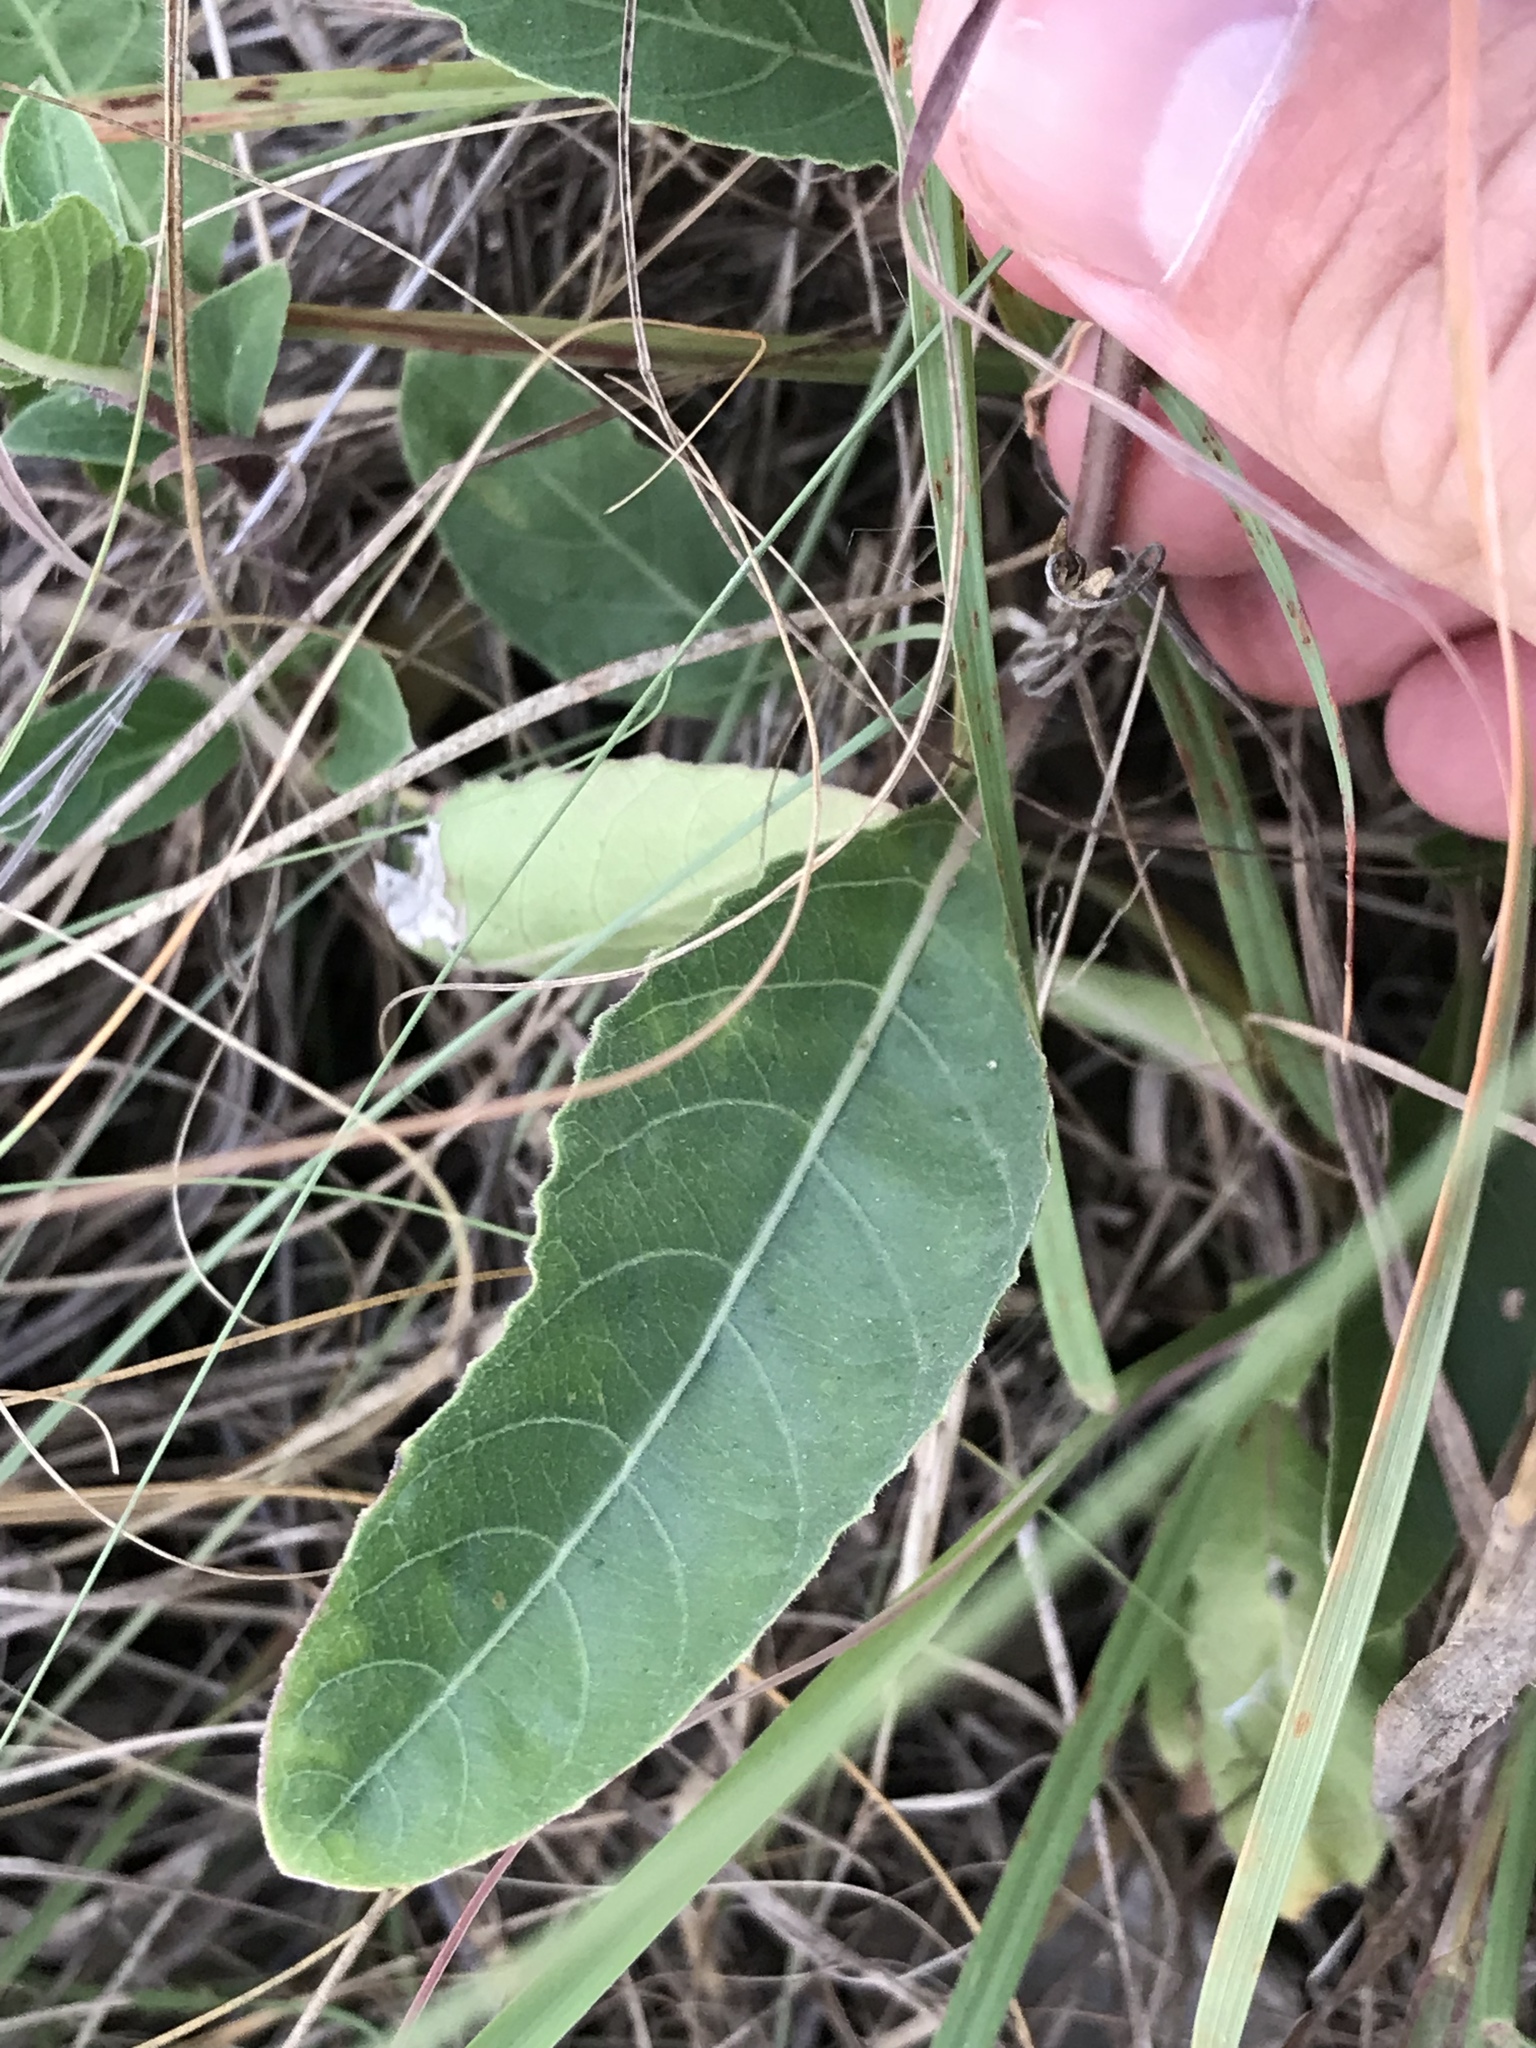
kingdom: Plantae
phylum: Tracheophyta
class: Magnoliopsida
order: Lamiales
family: Acanthaceae
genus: Ruellia
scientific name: Ruellia metziae
